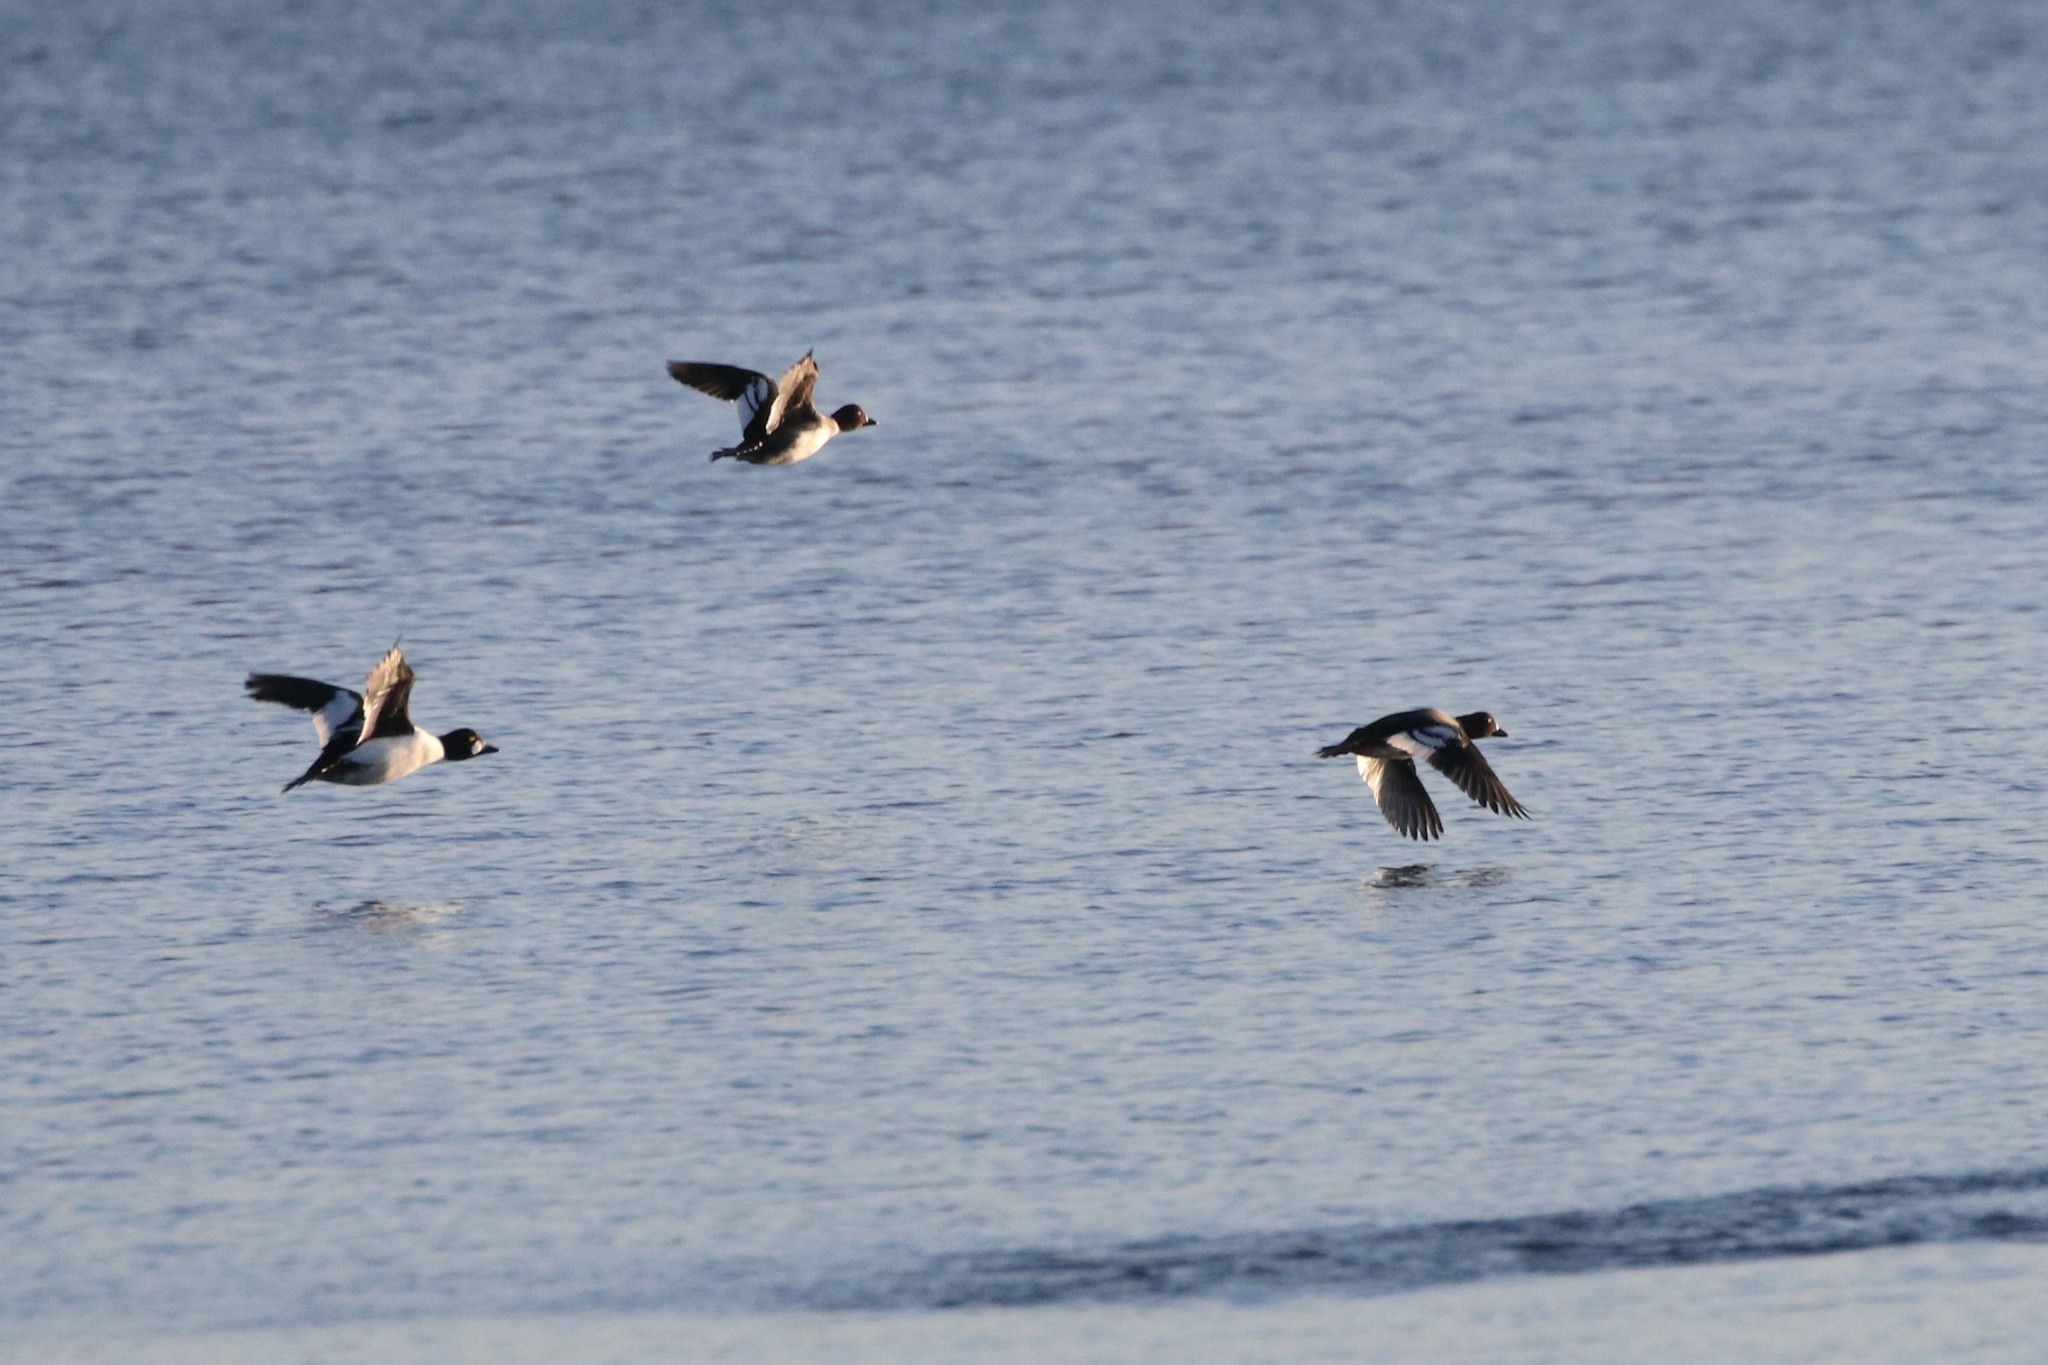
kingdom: Animalia
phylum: Chordata
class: Aves
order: Anseriformes
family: Anatidae
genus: Bucephala
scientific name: Bucephala clangula
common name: Common goldeneye
